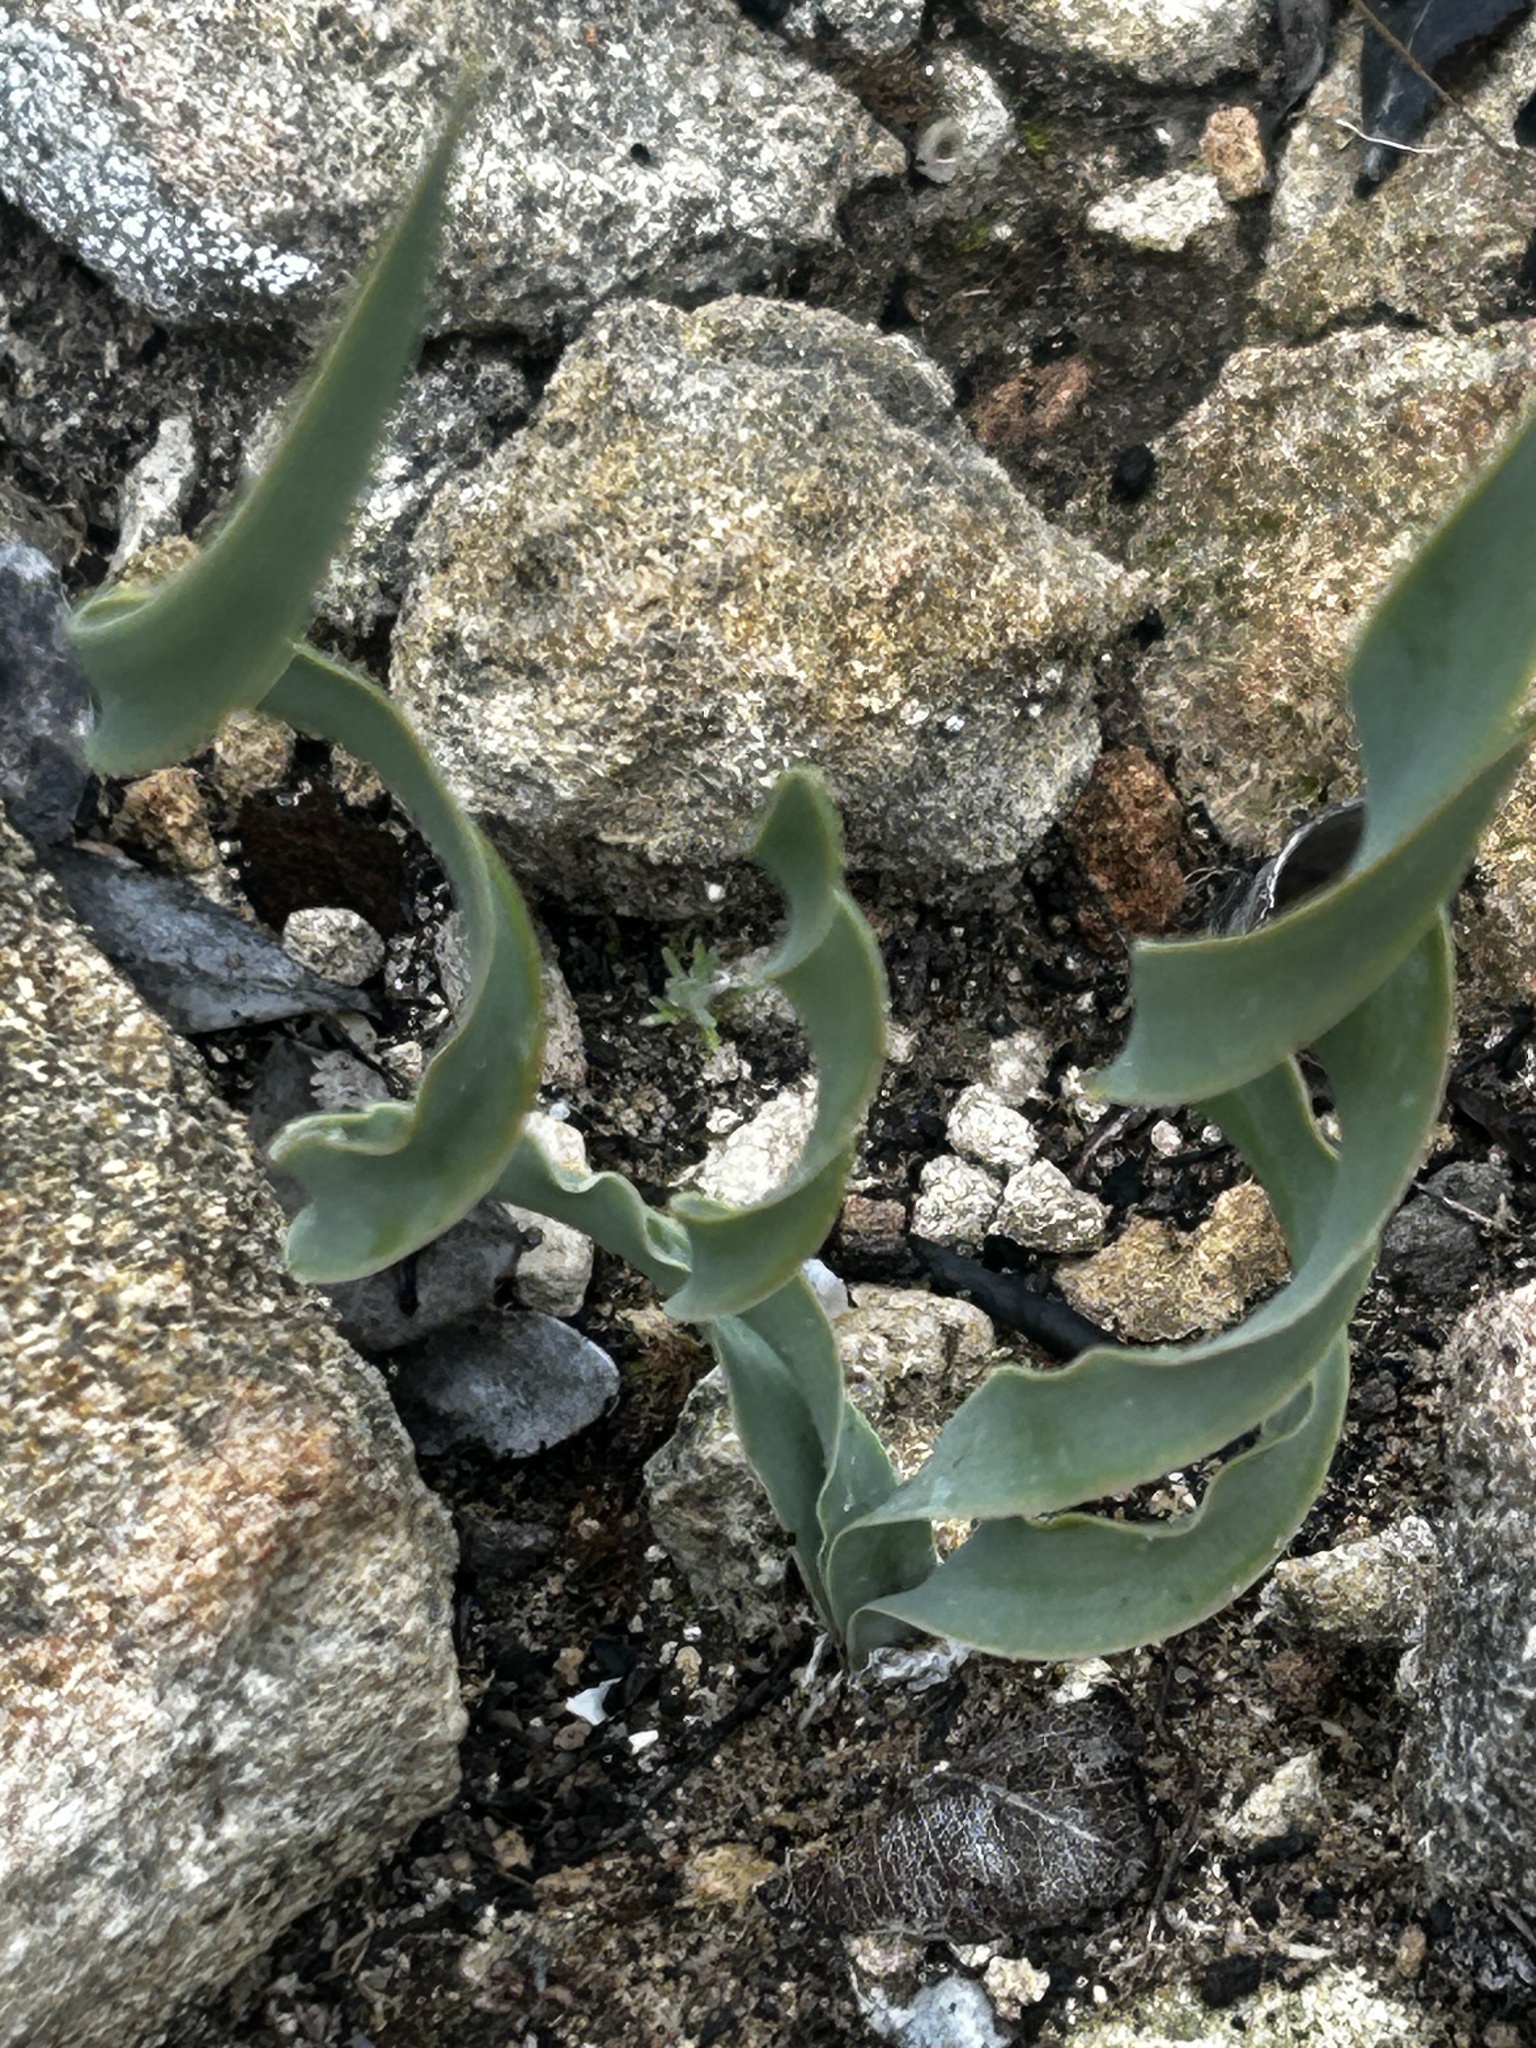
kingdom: Plantae
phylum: Tracheophyta
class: Liliopsida
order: Asparagales
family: Amaryllidaceae
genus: Boophone
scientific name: Boophone disticha
